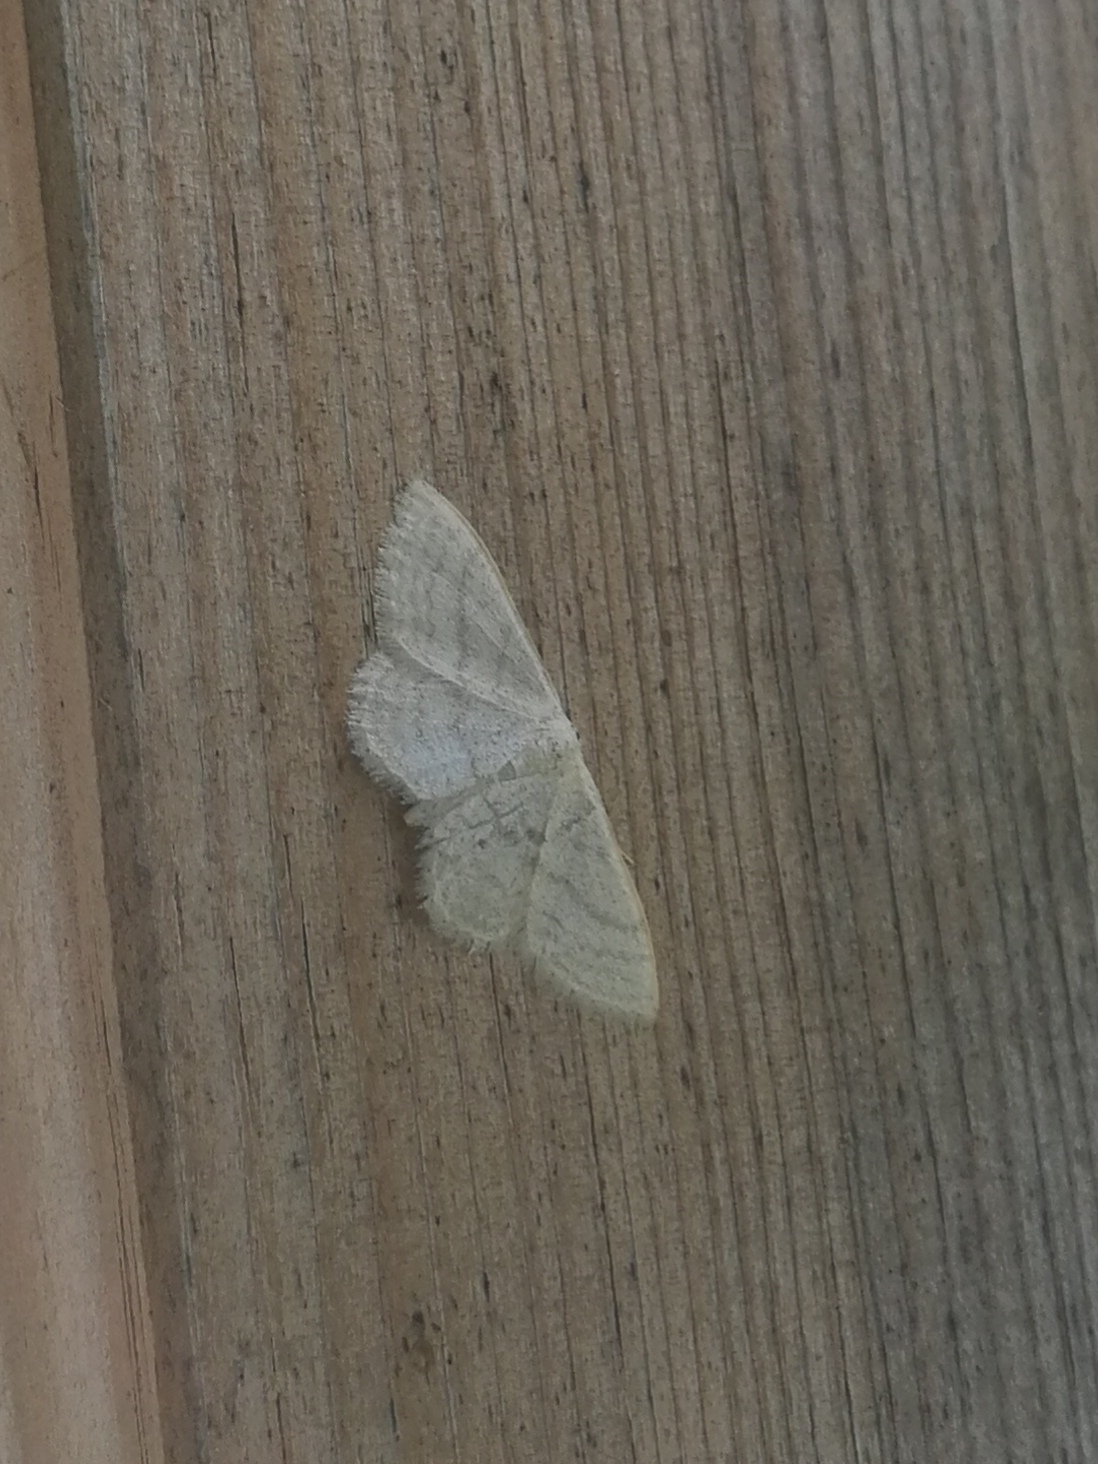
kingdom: Animalia
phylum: Arthropoda
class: Insecta
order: Lepidoptera
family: Geometridae
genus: Idaea
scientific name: Idaea subsericeata
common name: Satin wave
